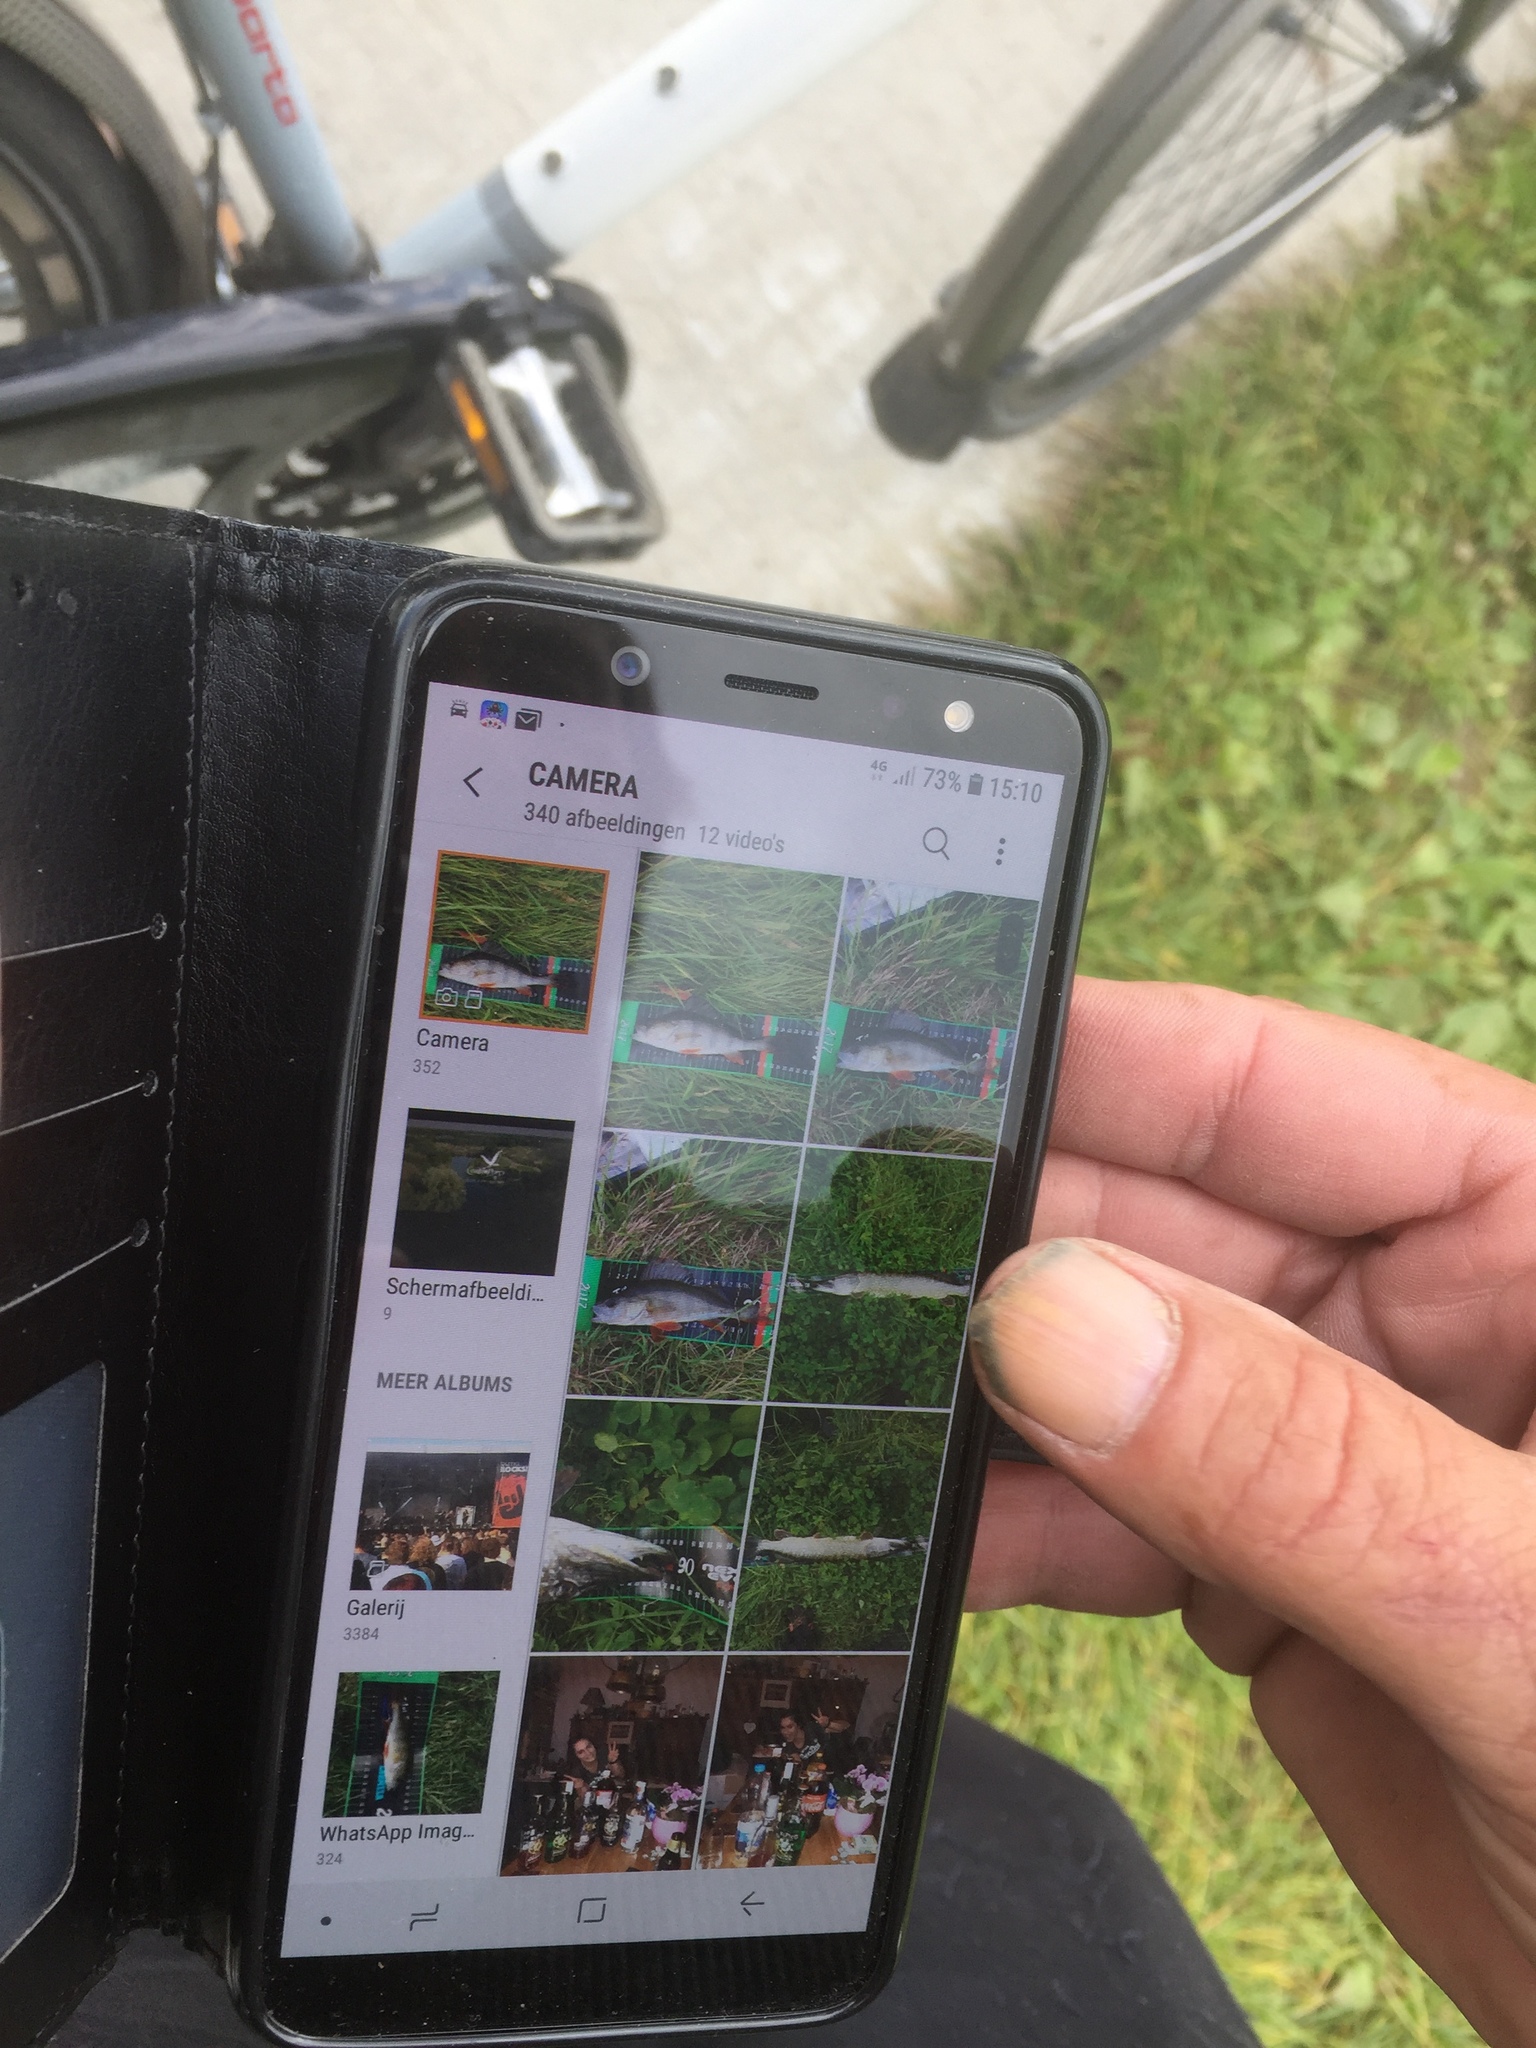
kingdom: Animalia
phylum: Chordata
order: Esociformes
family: Esocidae
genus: Esox
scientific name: Esox lucius
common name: Northern pike
